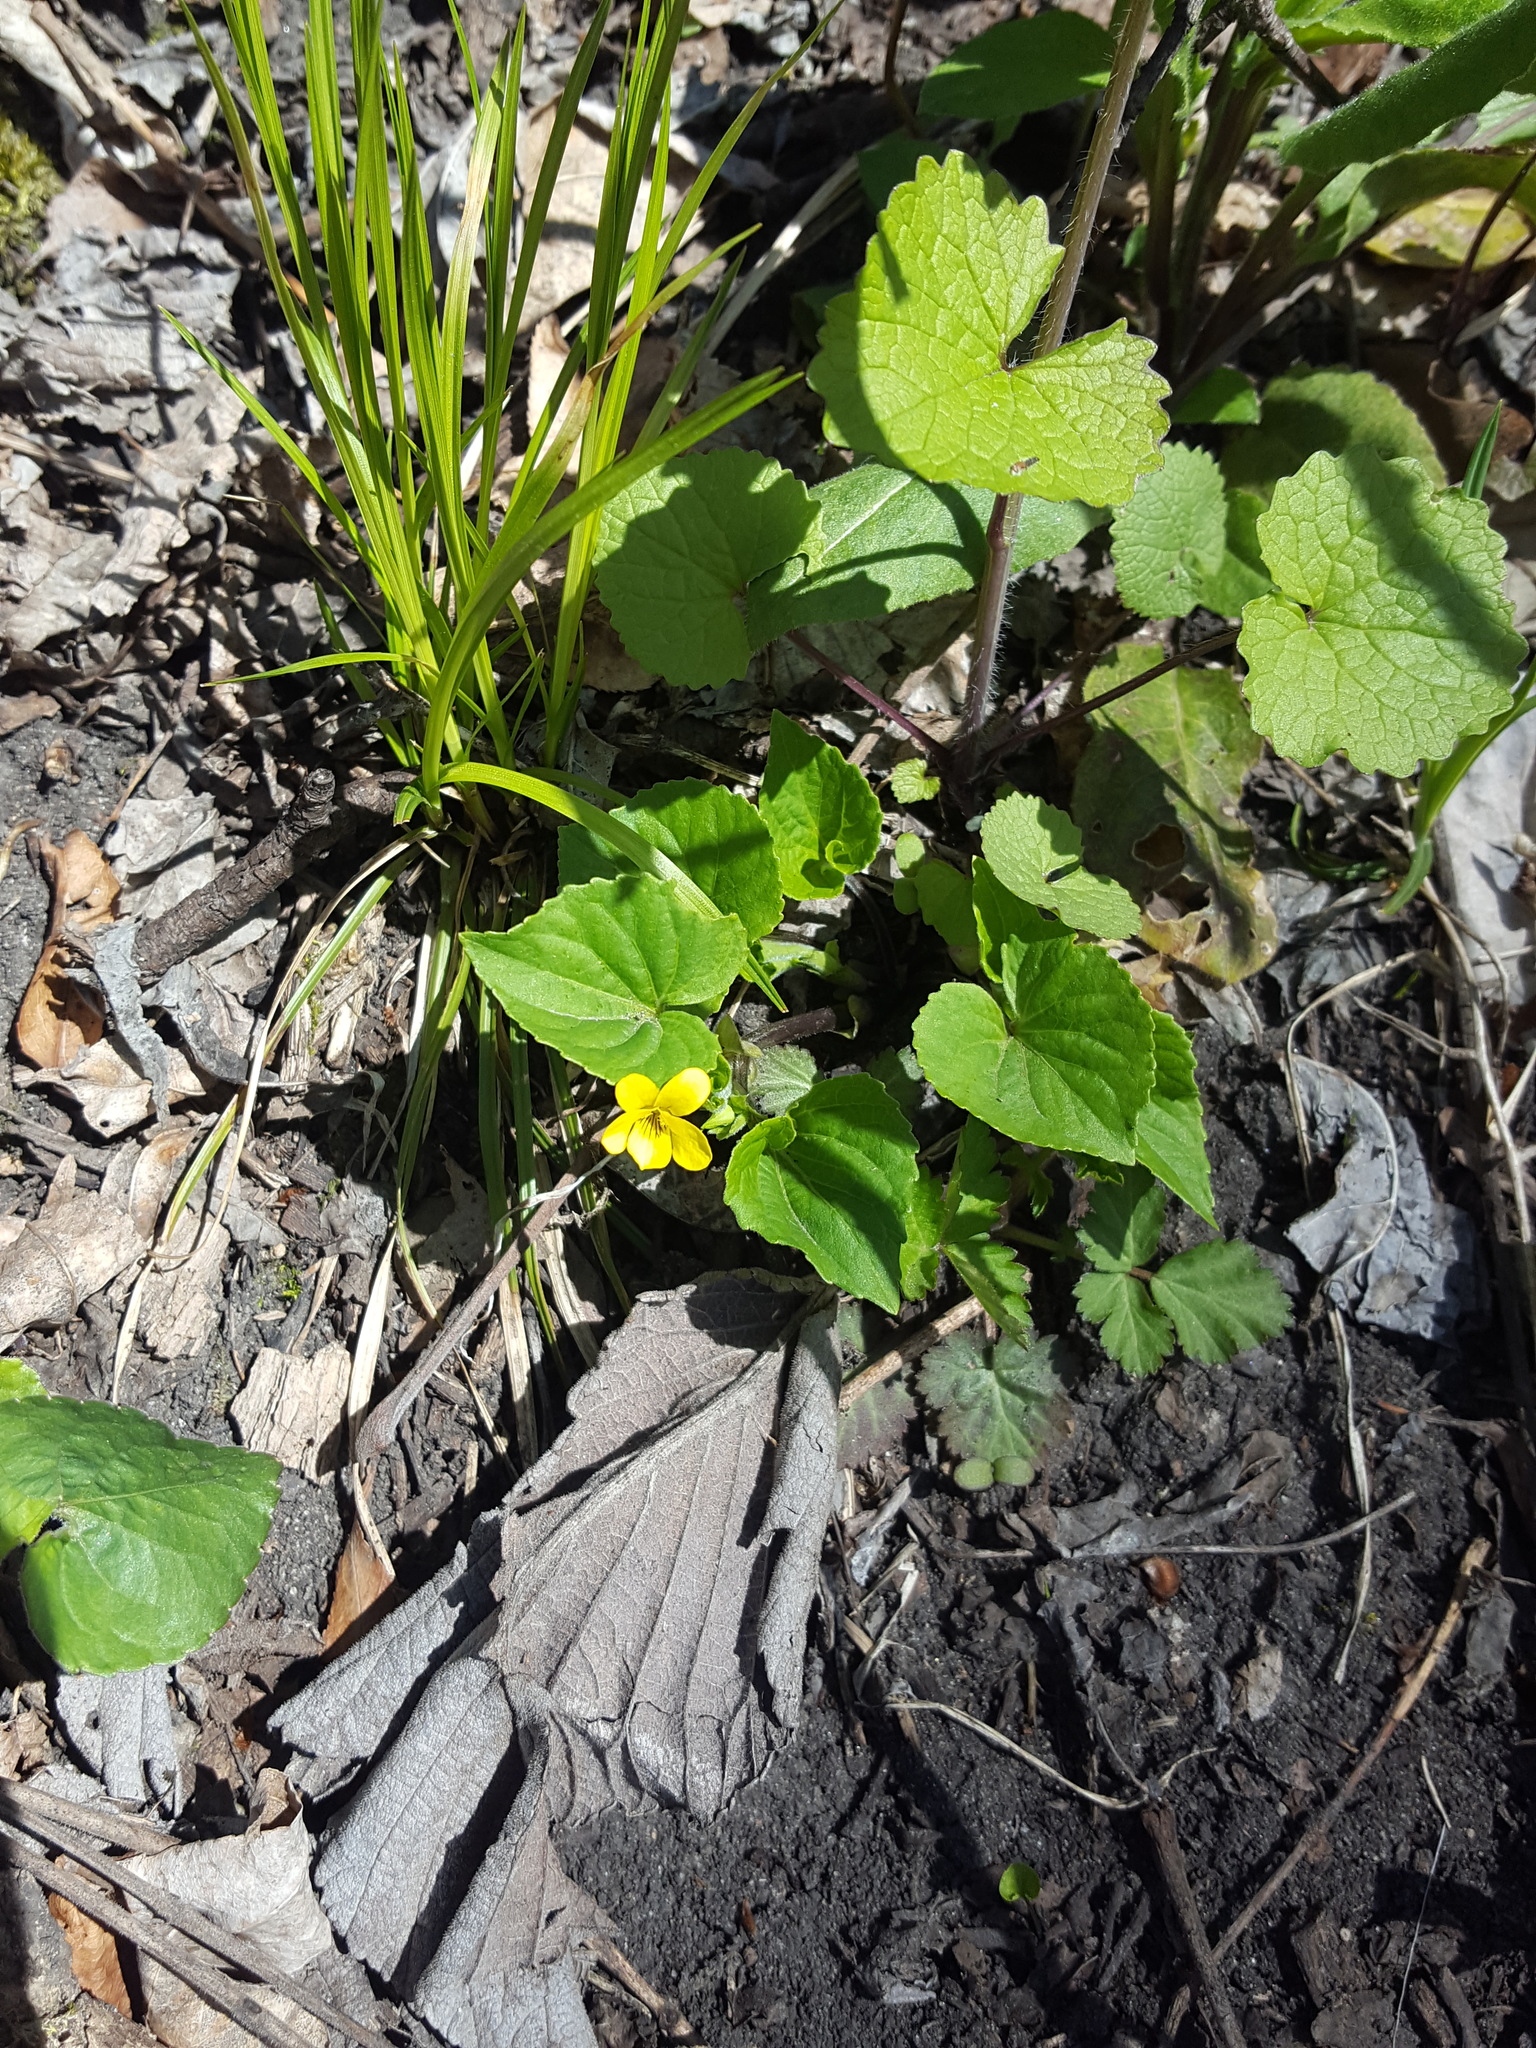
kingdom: Plantae
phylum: Tracheophyta
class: Magnoliopsida
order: Malpighiales
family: Violaceae
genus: Viola
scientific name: Viola eriocarpa
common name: Smooth yellow violet
